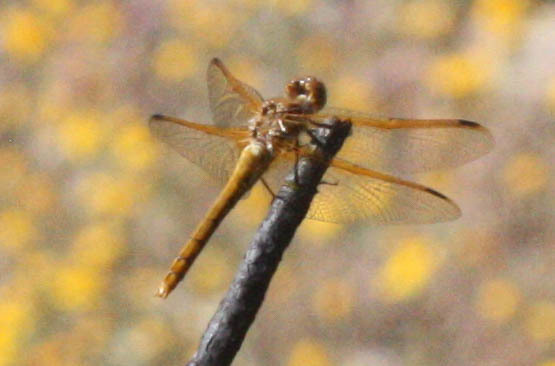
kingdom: Animalia
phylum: Arthropoda
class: Insecta
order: Odonata
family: Libellulidae
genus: Sympetrum
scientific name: Sympetrum madidum
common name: Red-veined meadowhawk
